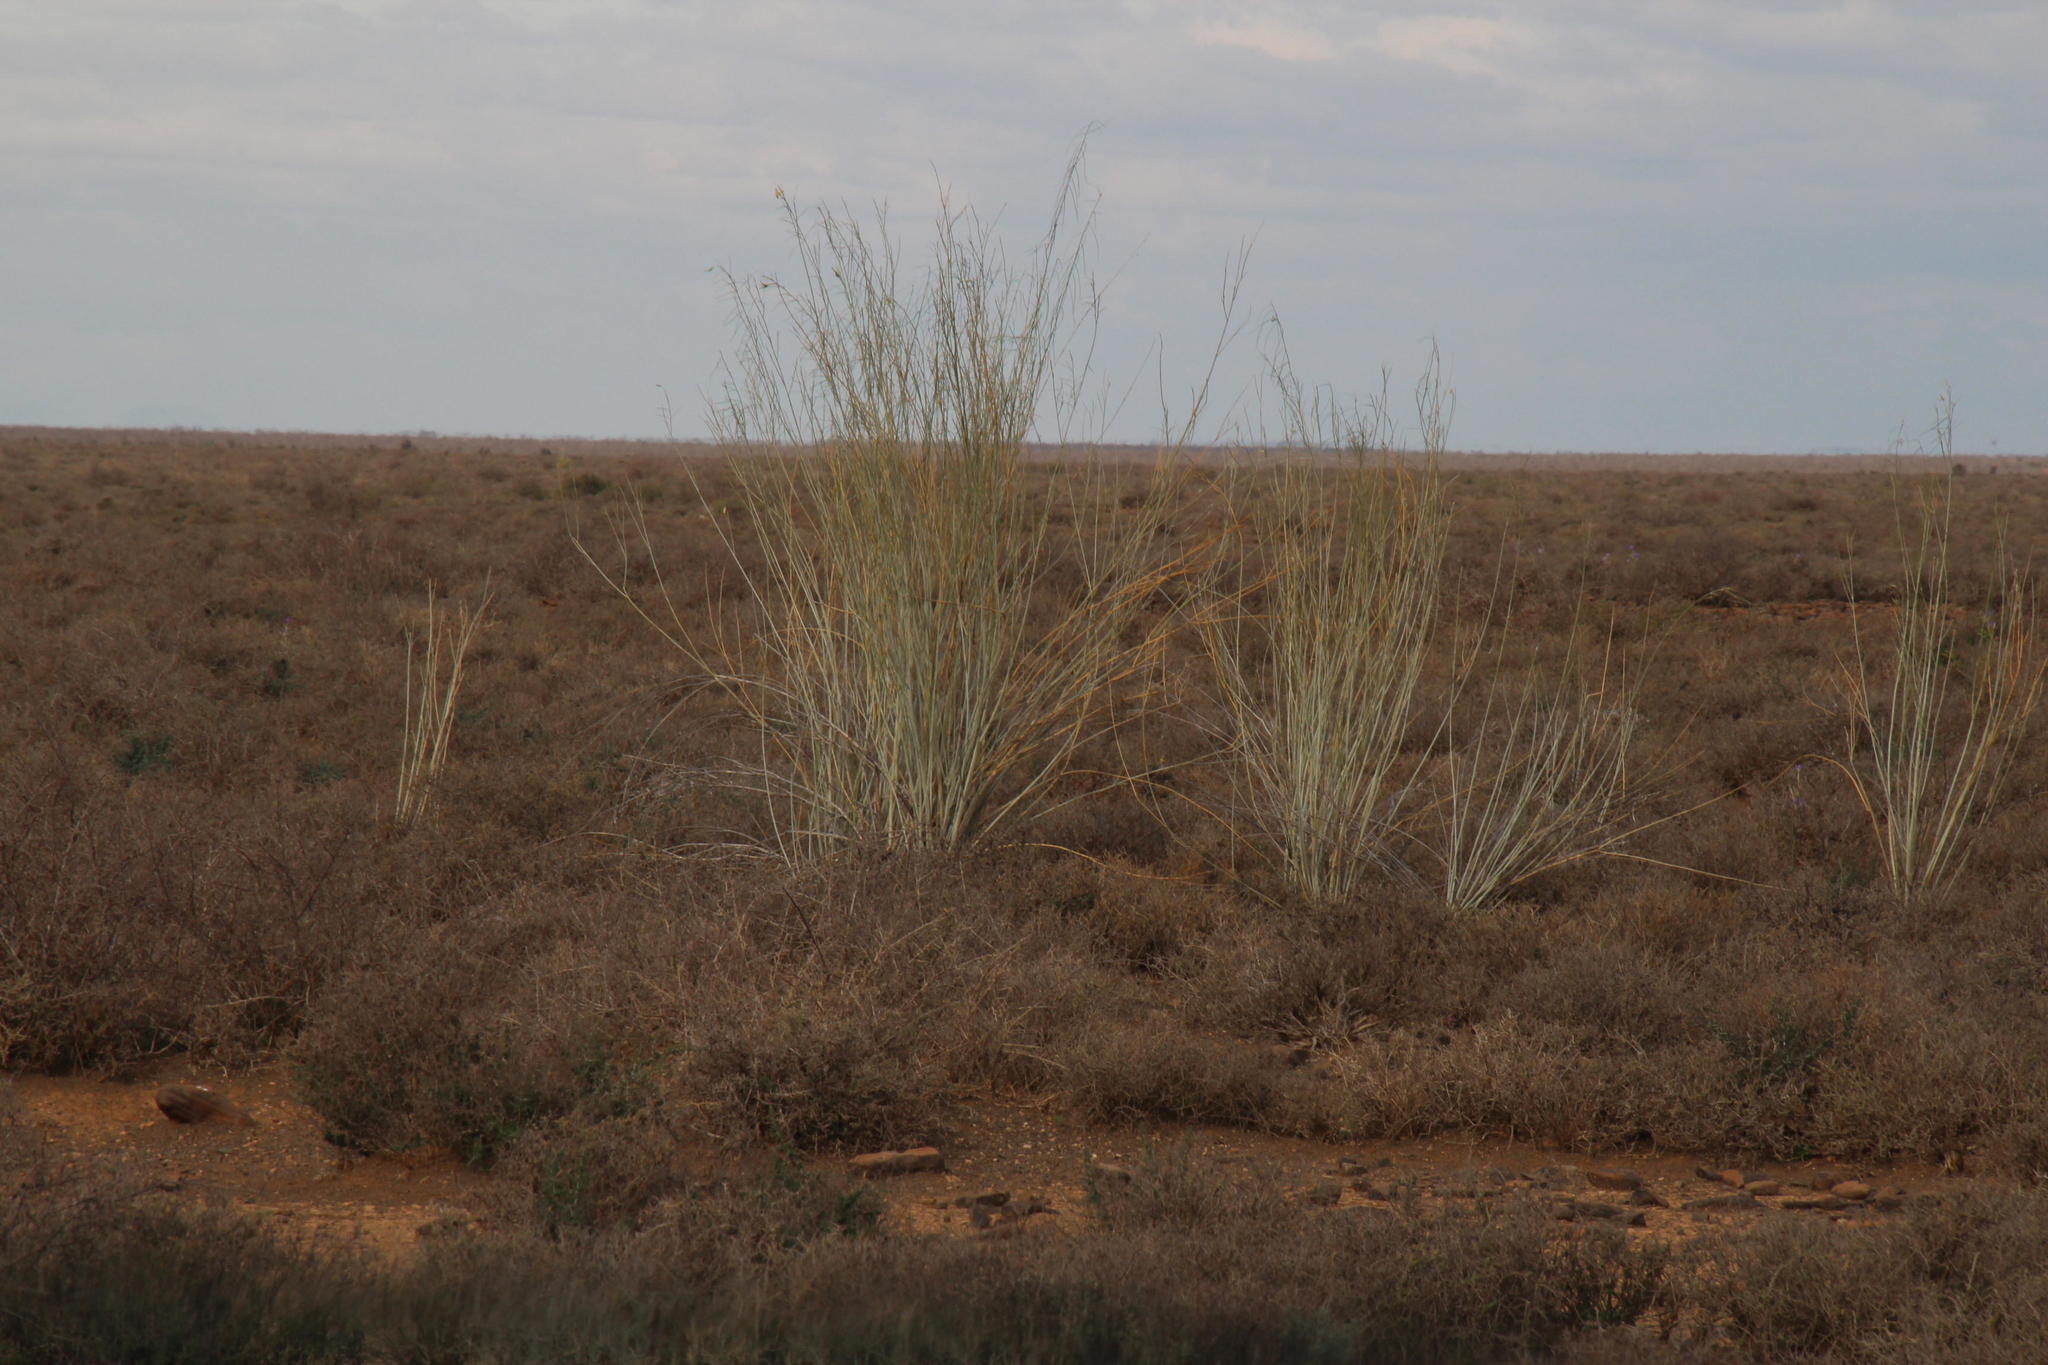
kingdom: Plantae
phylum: Tracheophyta
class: Magnoliopsida
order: Gentianales
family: Apocynaceae
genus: Gomphocarpus
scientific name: Gomphocarpus filiformis
